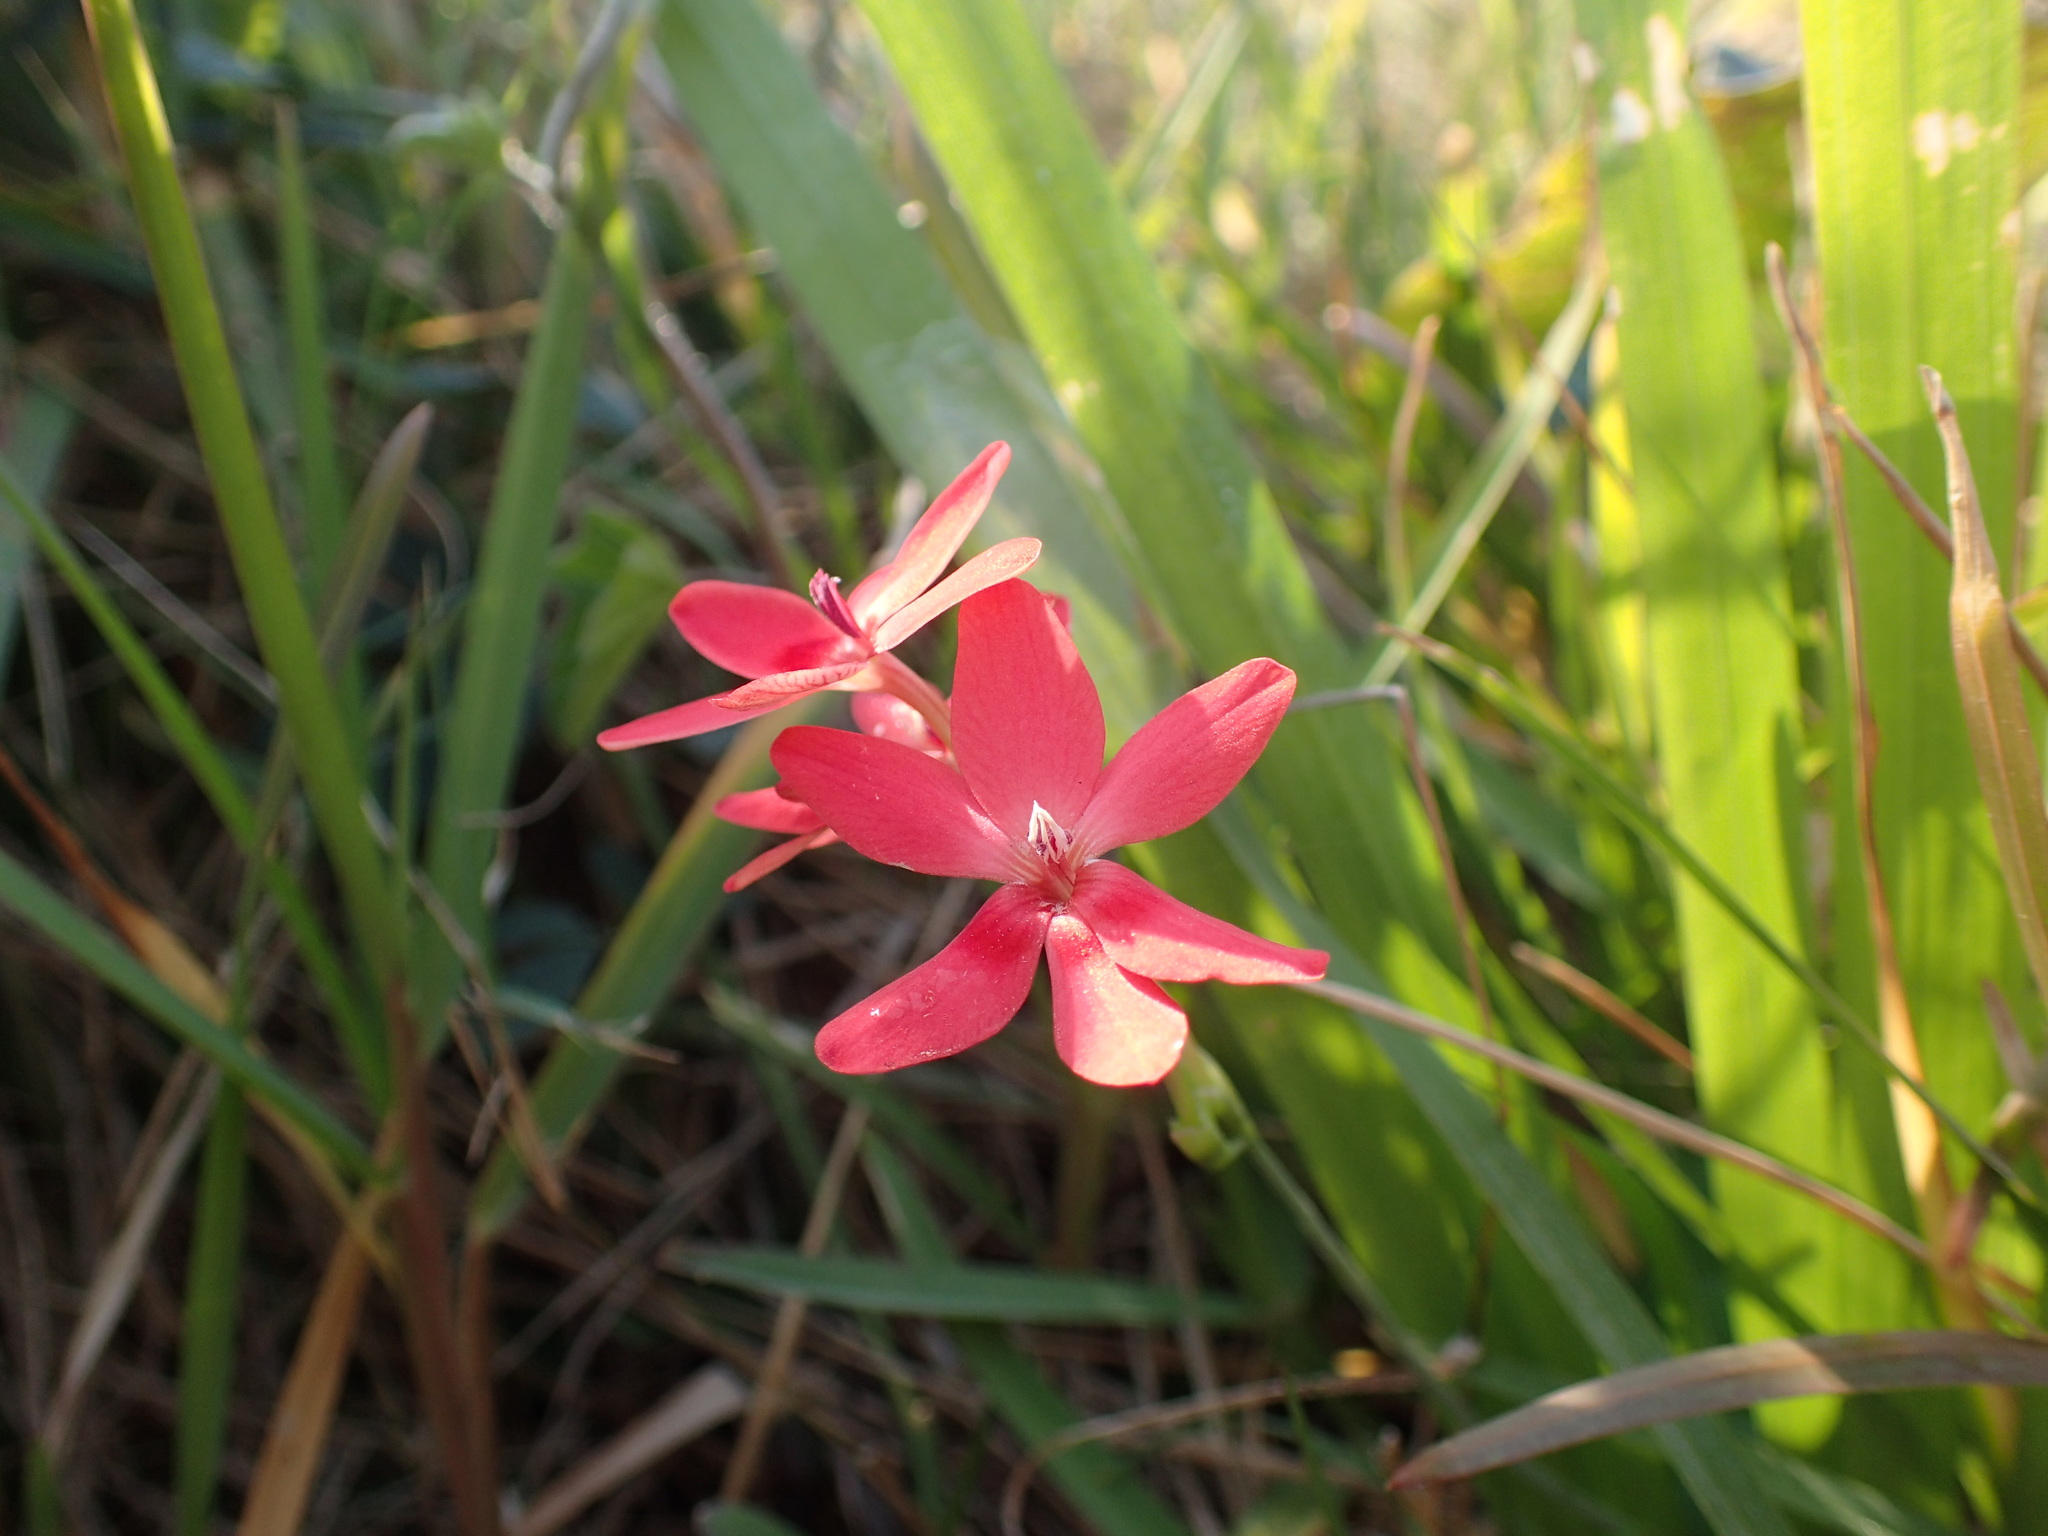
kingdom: Plantae
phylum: Tracheophyta
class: Liliopsida
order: Asparagales
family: Iridaceae
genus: Freesia
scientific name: Freesia laxa
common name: False freesia
